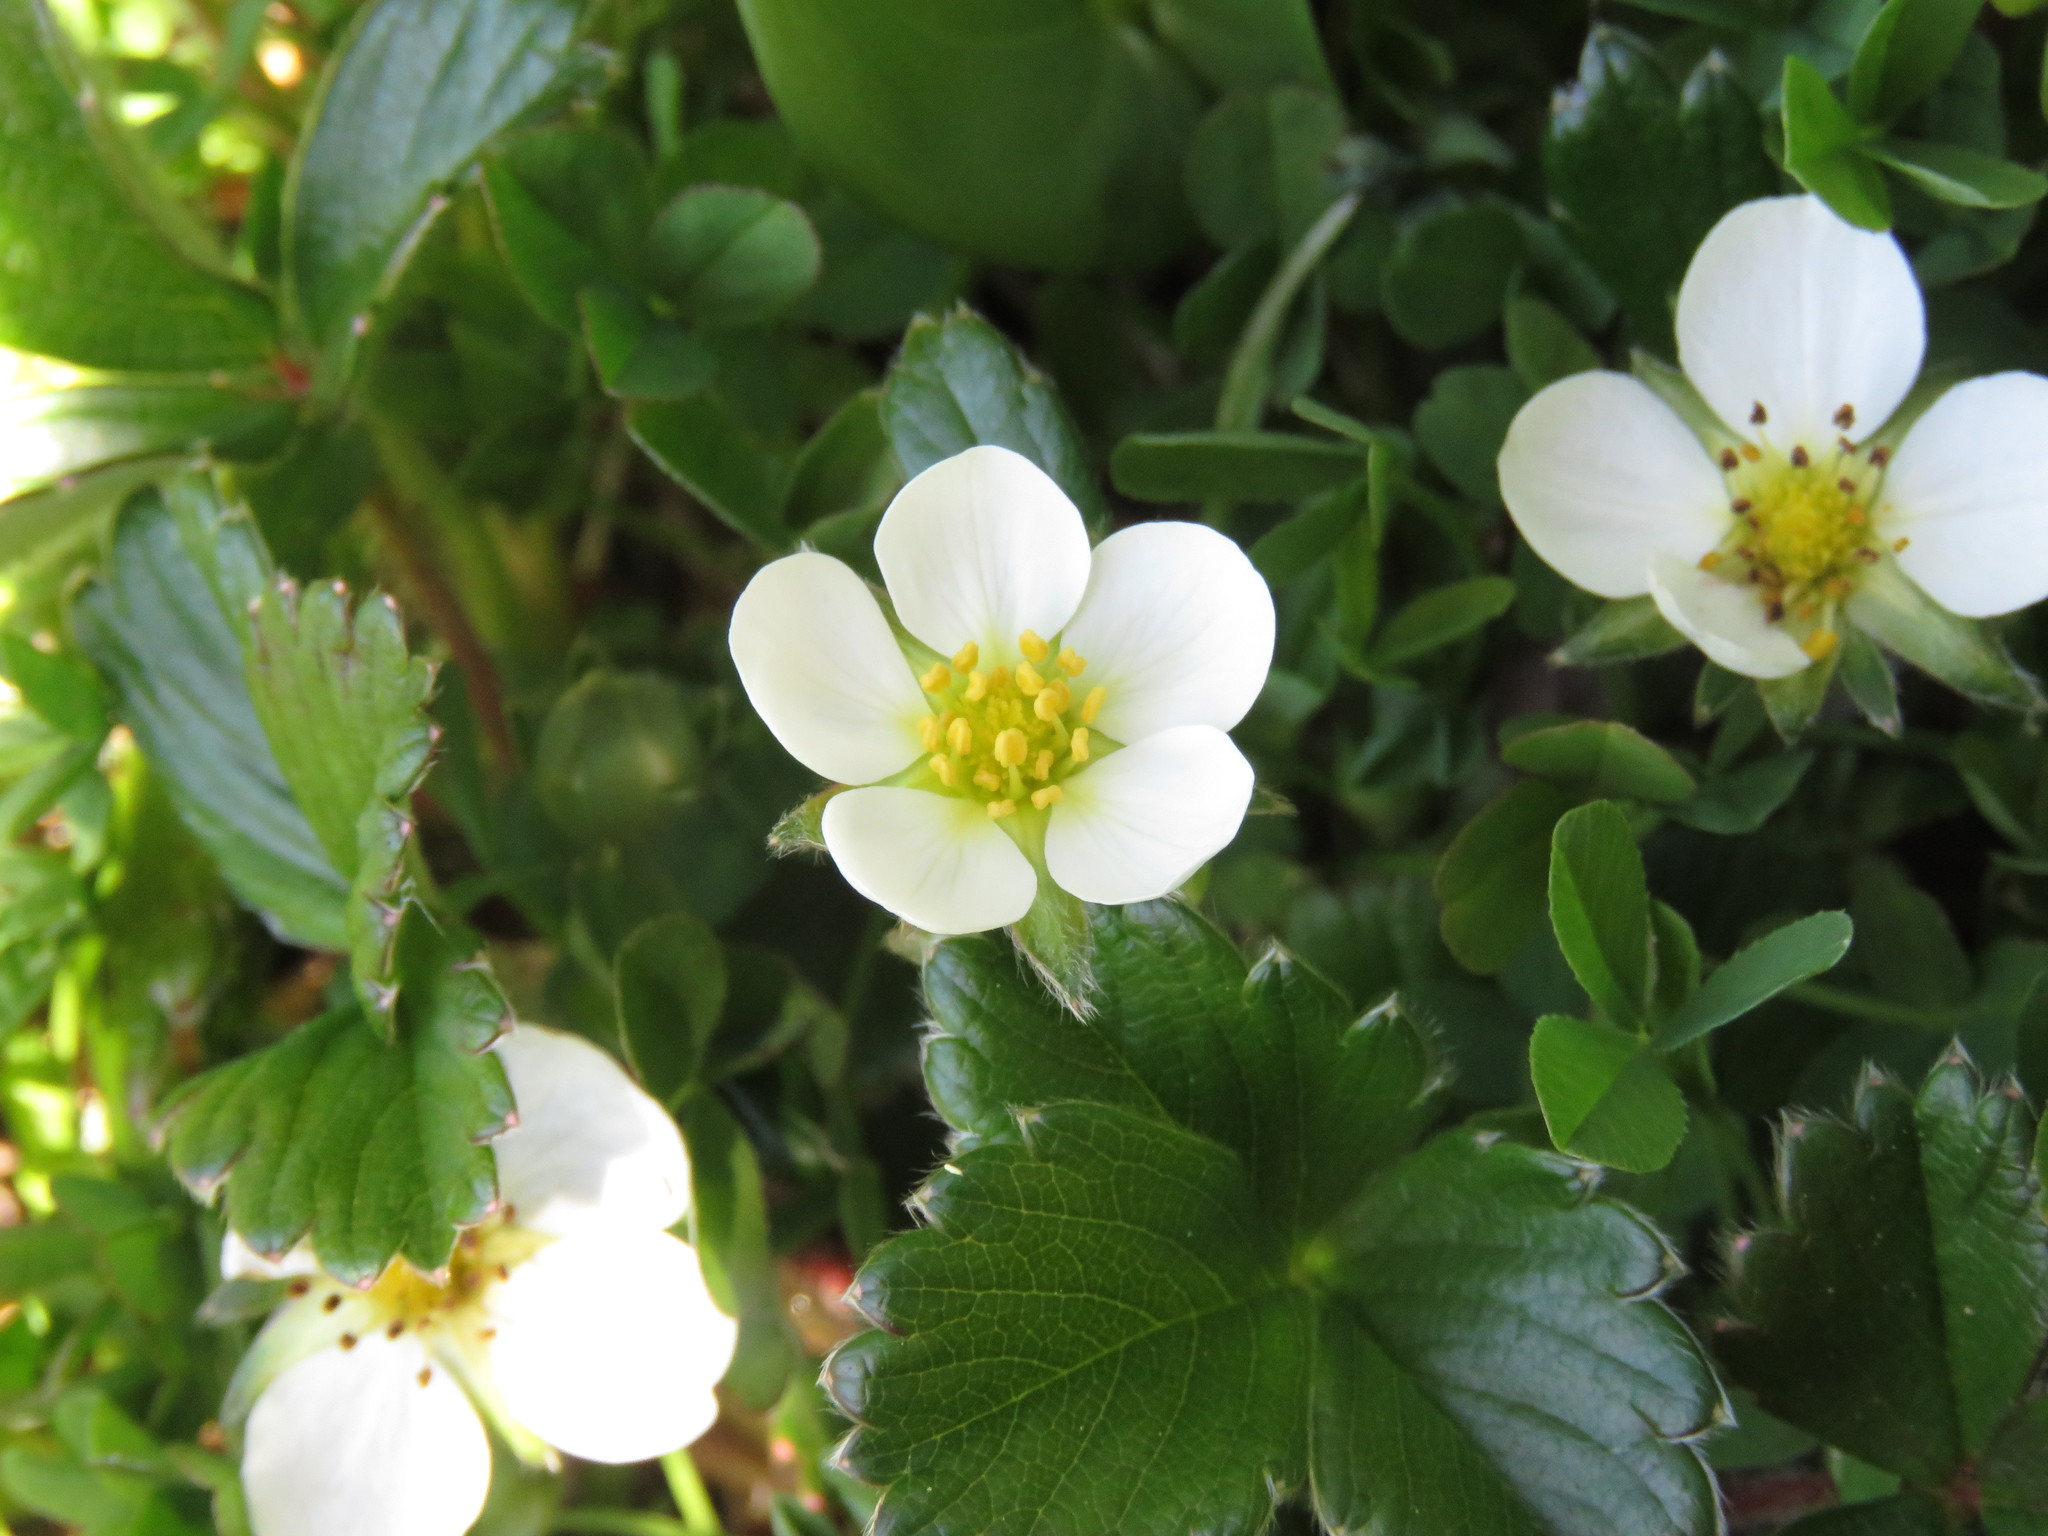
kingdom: Plantae
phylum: Tracheophyta
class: Magnoliopsida
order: Rosales
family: Rosaceae
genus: Fragaria
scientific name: Fragaria chiloensis
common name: Beach strawberry
